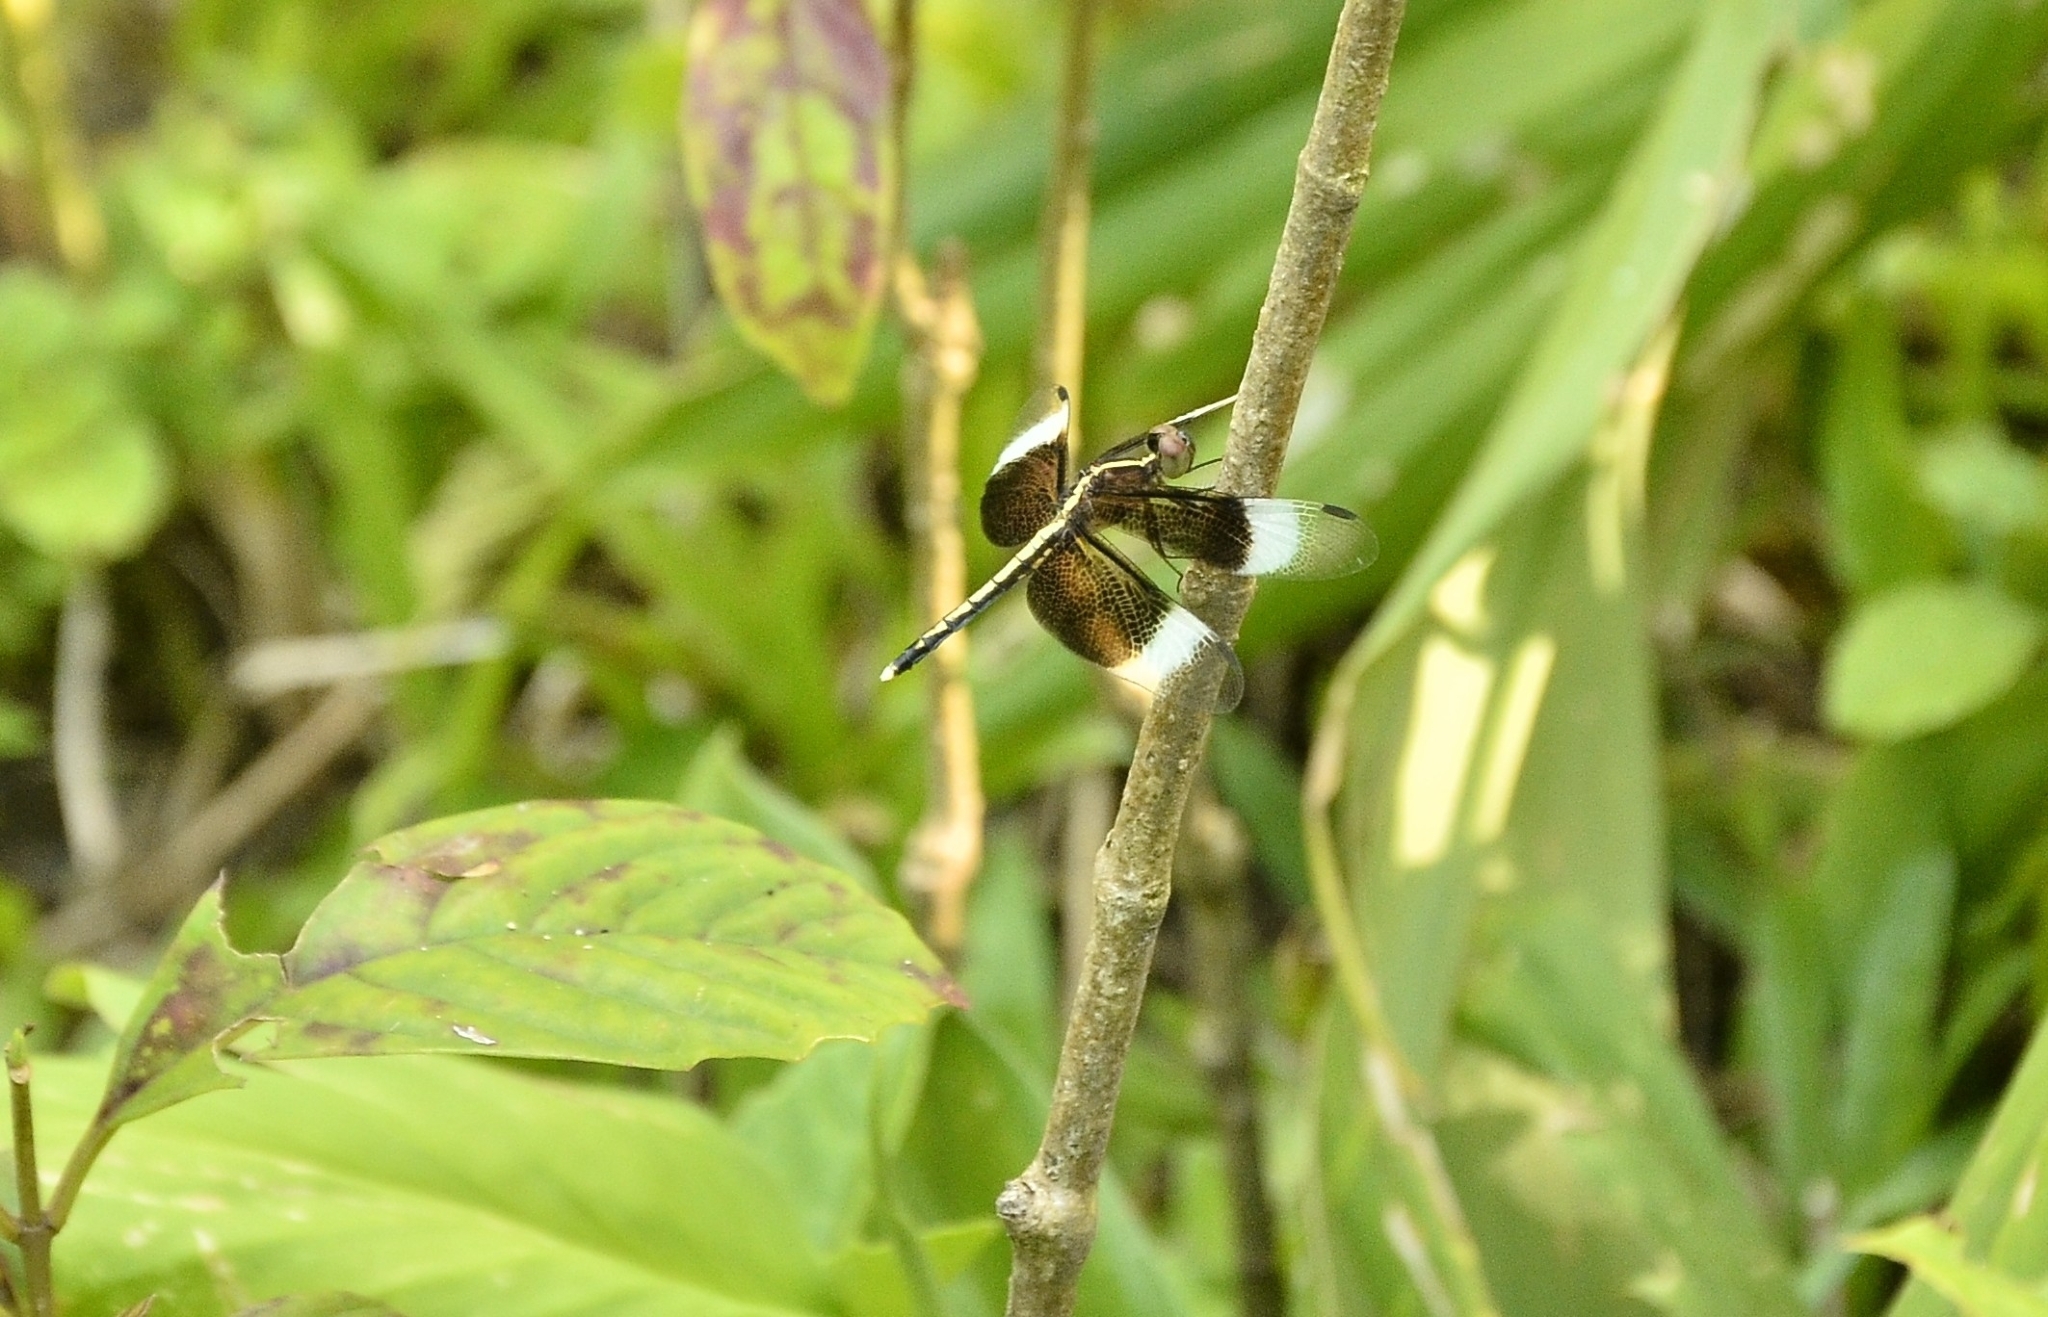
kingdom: Animalia
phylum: Arthropoda
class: Insecta
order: Odonata
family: Libellulidae
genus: Neurothemis
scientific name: Neurothemis tullia
